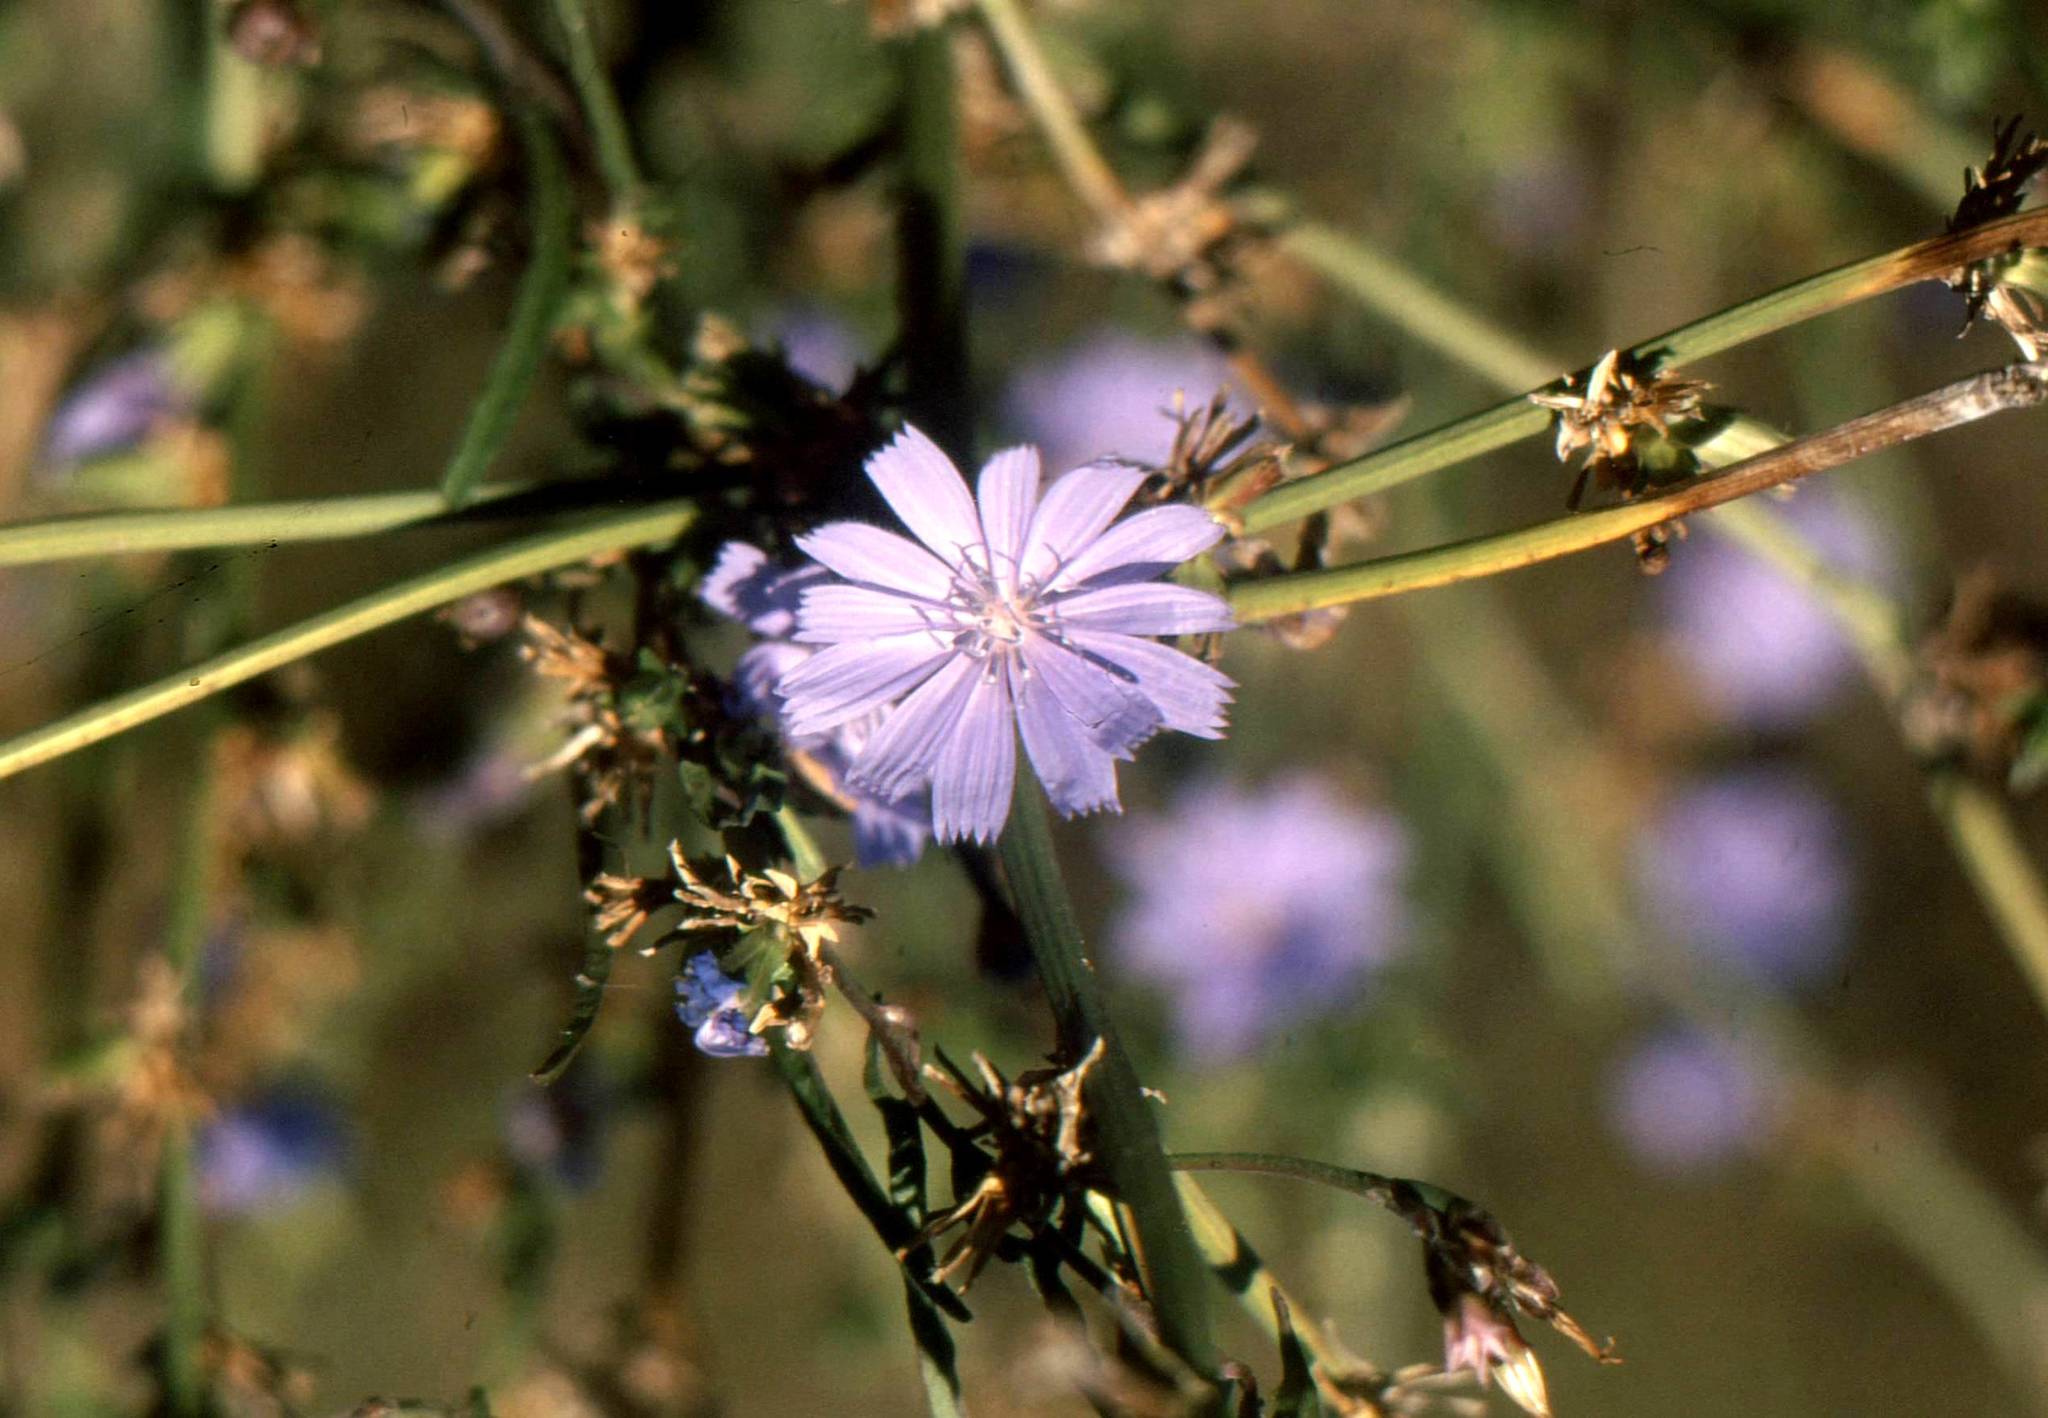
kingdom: Plantae
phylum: Tracheophyta
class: Magnoliopsida
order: Asterales
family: Asteraceae
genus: Cichorium
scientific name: Cichorium intybus
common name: Chicory
